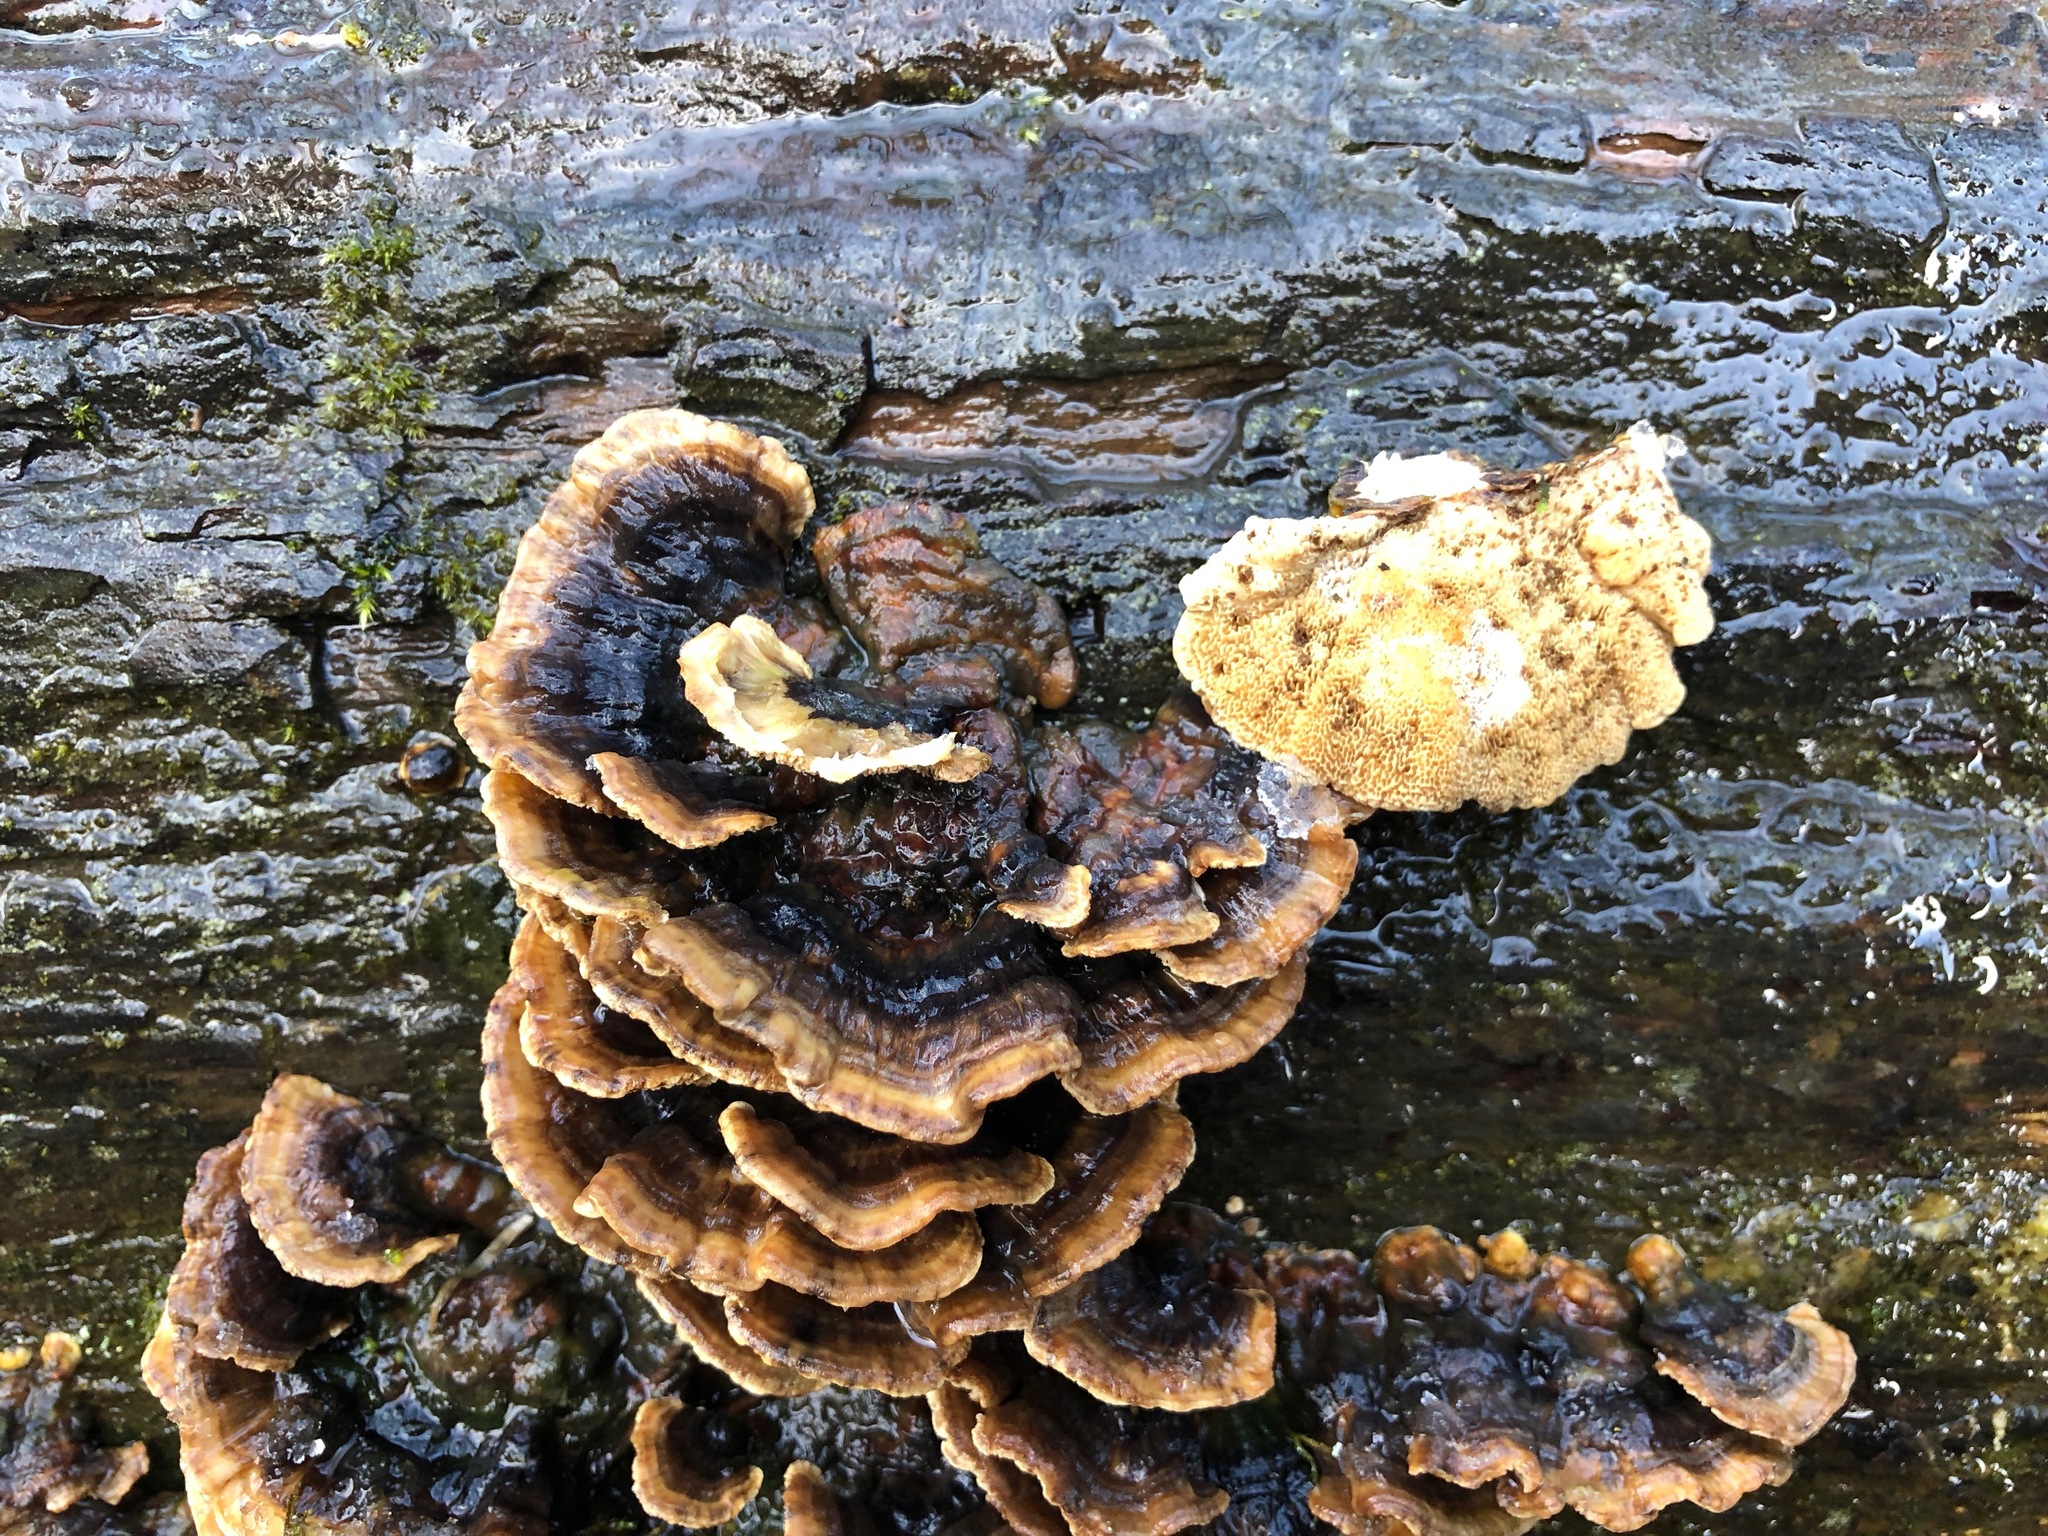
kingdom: Fungi
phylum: Basidiomycota
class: Agaricomycetes
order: Polyporales
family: Polyporaceae
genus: Trametes
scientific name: Trametes versicolor
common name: Turkeytail
